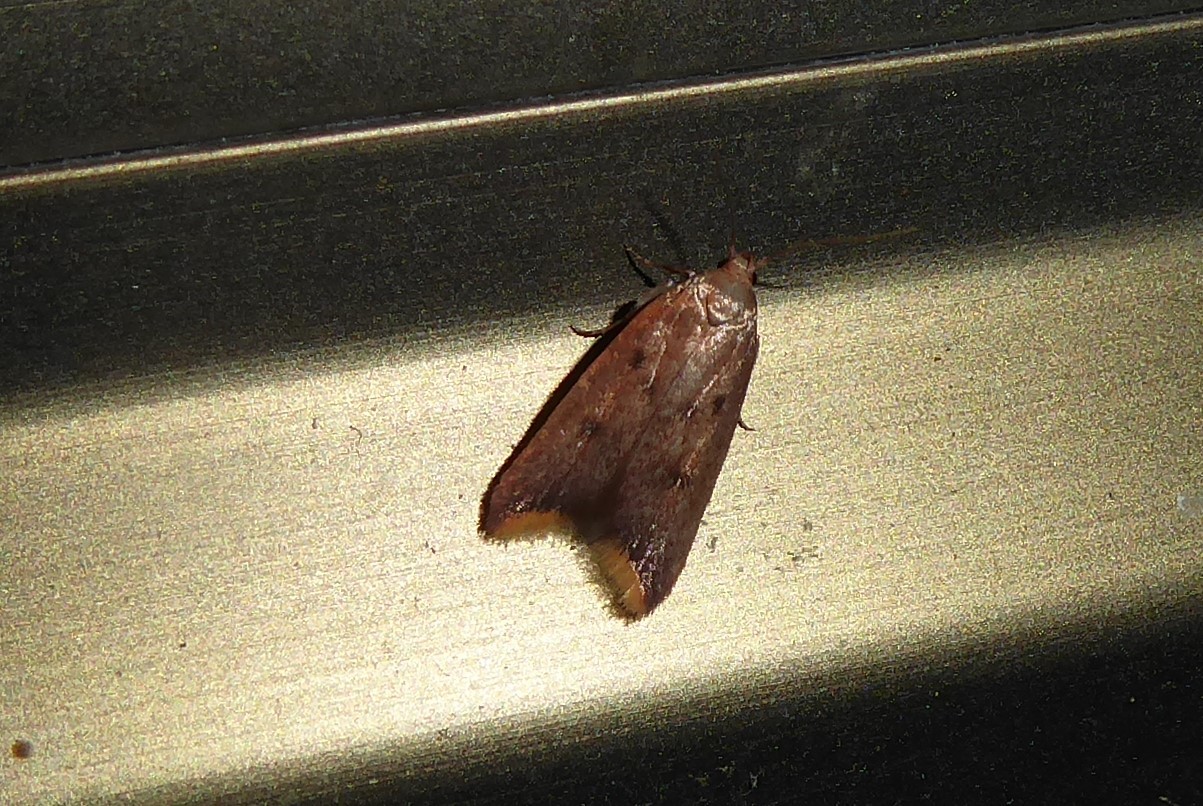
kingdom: Animalia
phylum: Arthropoda
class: Insecta
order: Lepidoptera
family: Oecophoridae
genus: Tachystola
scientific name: Tachystola acroxantha
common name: Ruddy streak
